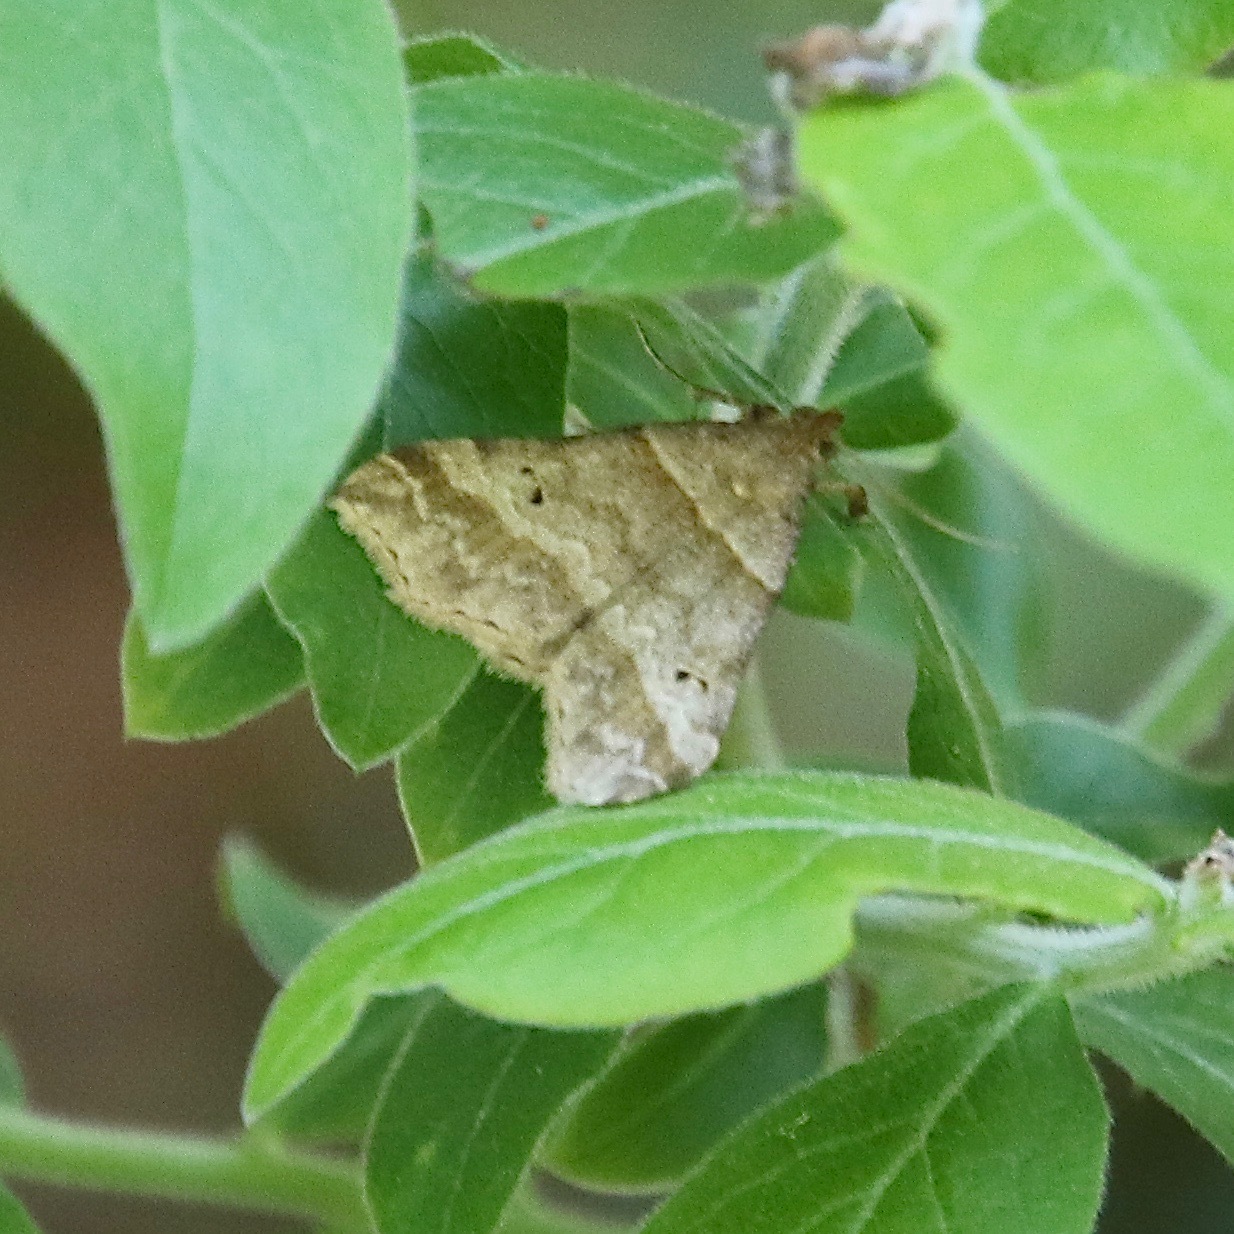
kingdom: Animalia
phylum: Arthropoda
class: Insecta
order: Lepidoptera
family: Erebidae
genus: Phaeolita
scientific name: Phaeolita pyramusalis
